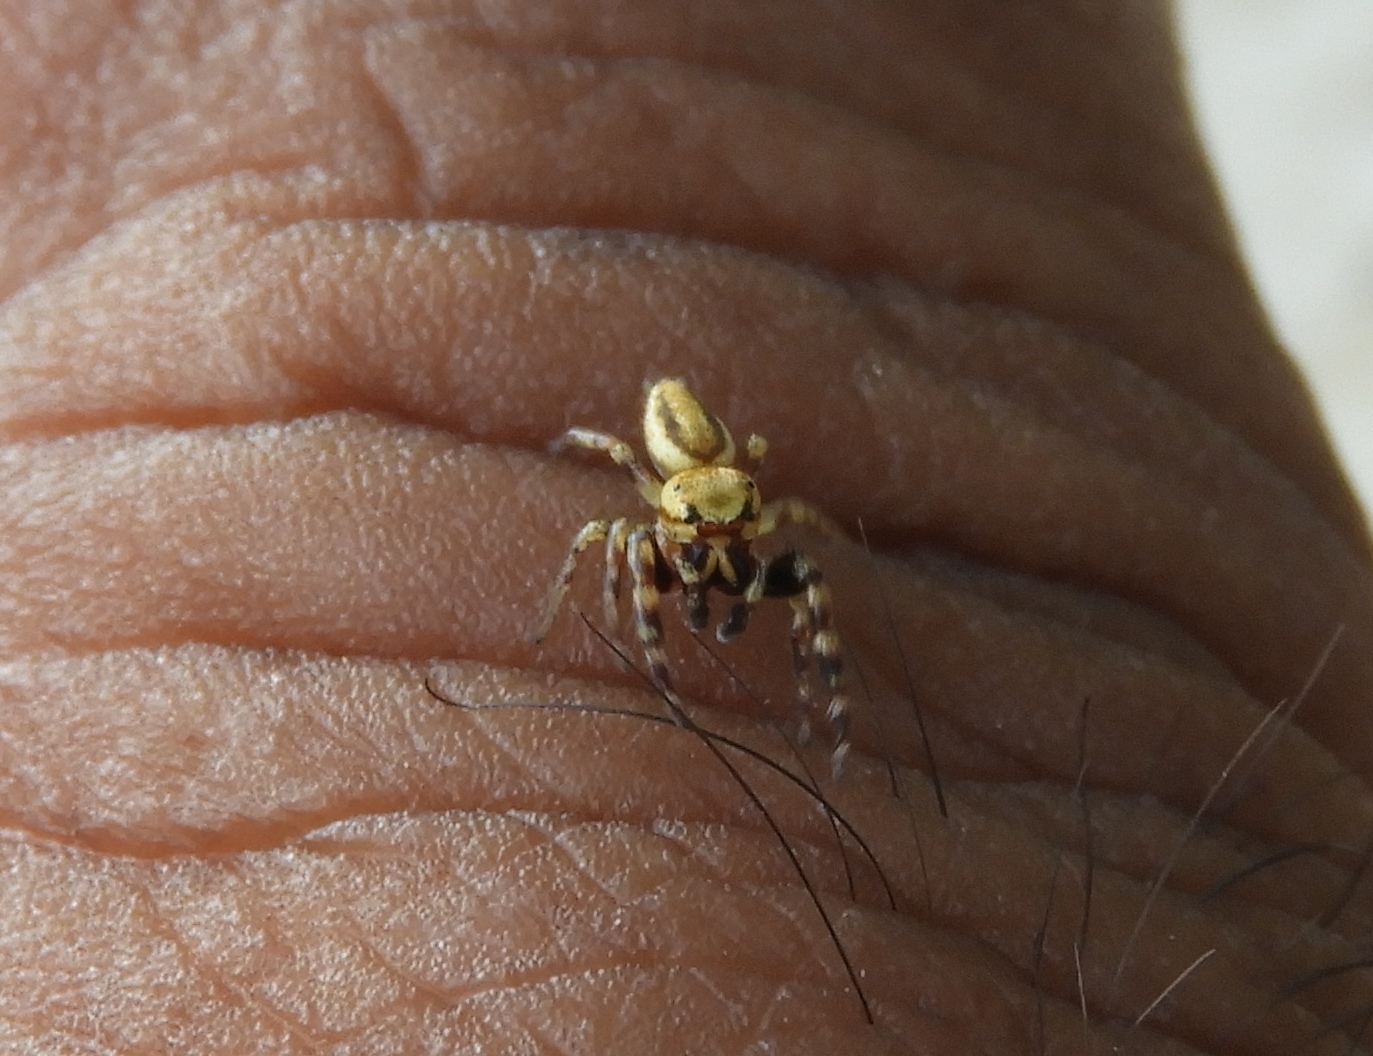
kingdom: Animalia
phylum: Arthropoda
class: Arachnida
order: Araneae
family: Salticidae
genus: Metaphidippus
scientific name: Metaphidippus
